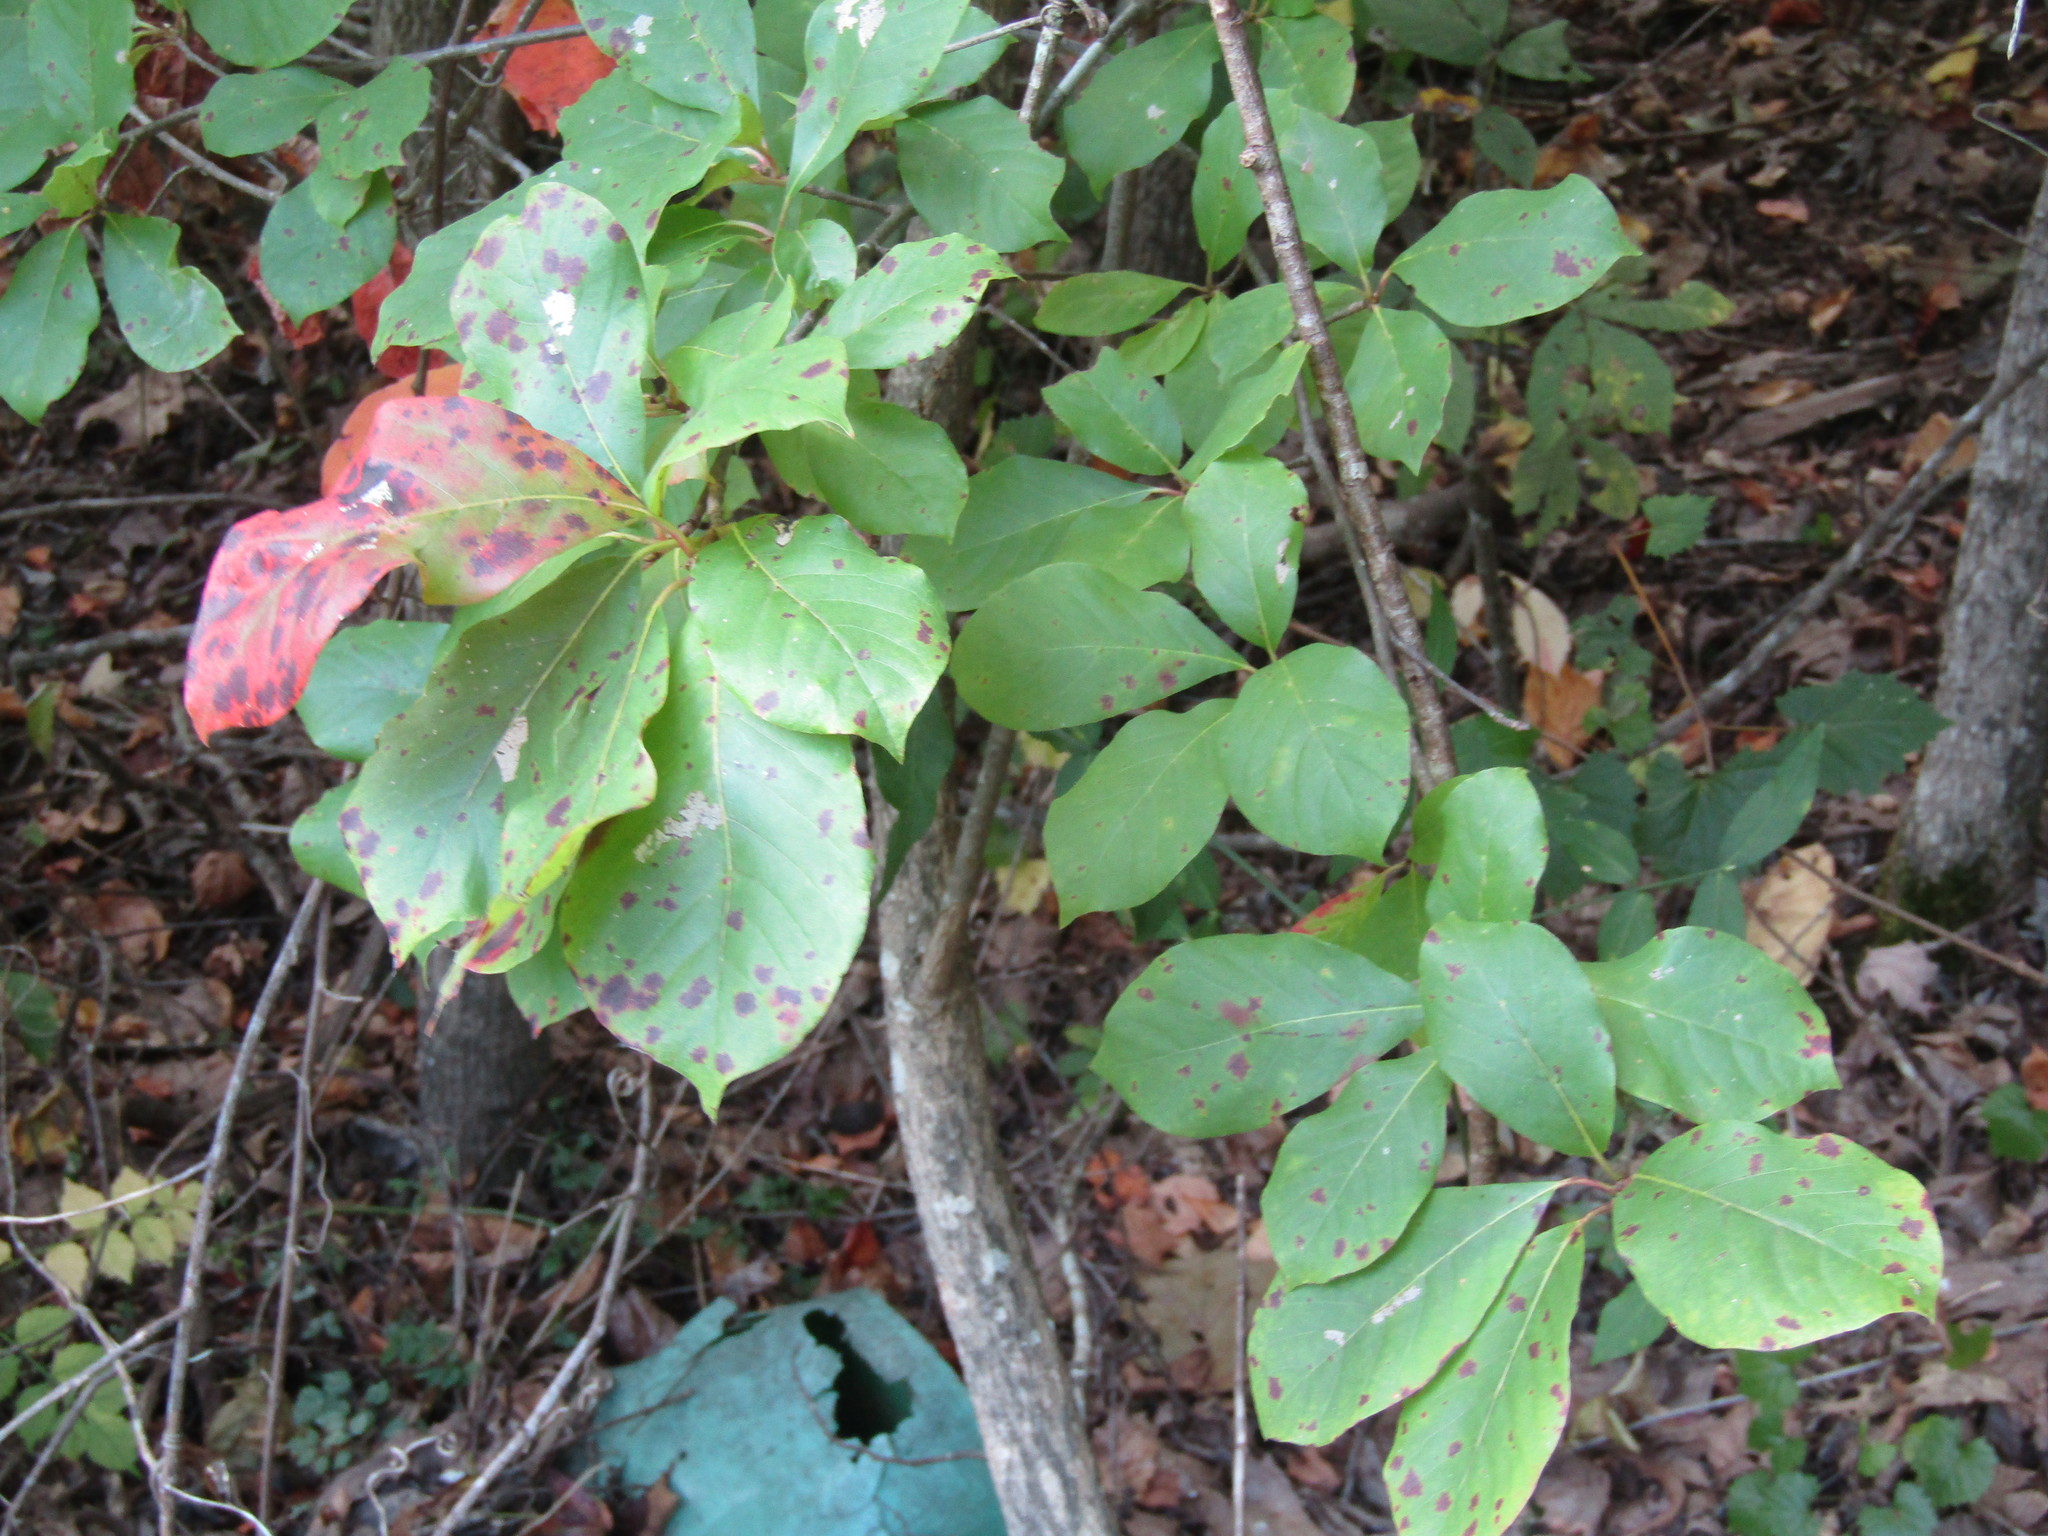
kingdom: Plantae
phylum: Tracheophyta
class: Magnoliopsida
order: Cornales
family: Nyssaceae
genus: Nyssa
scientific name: Nyssa sylvatica
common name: Black tupelo
